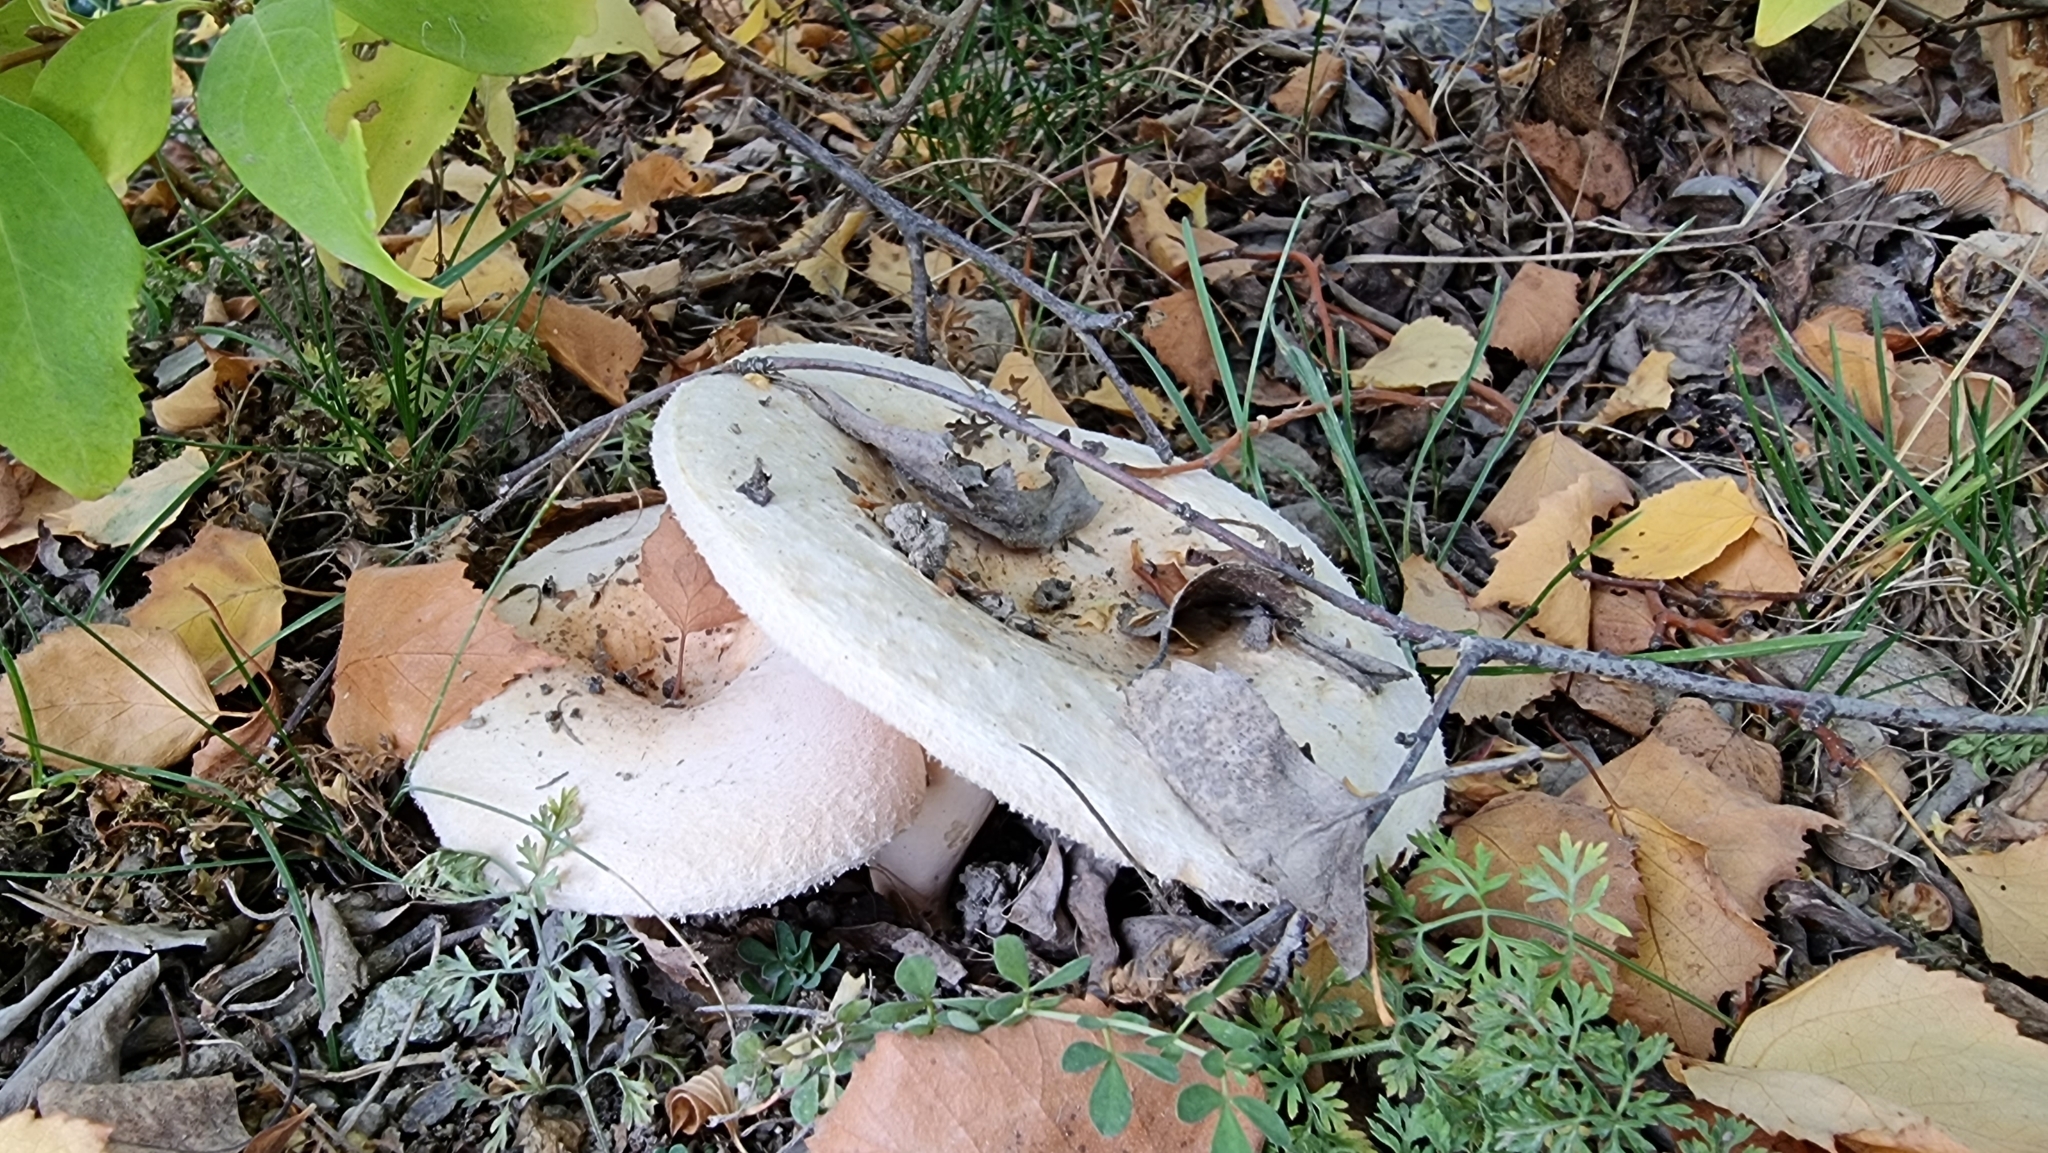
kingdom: Fungi
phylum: Basidiomycota
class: Agaricomycetes
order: Russulales
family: Russulaceae
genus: Lactarius
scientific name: Lactarius pubescens
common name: Bearded milkcap
